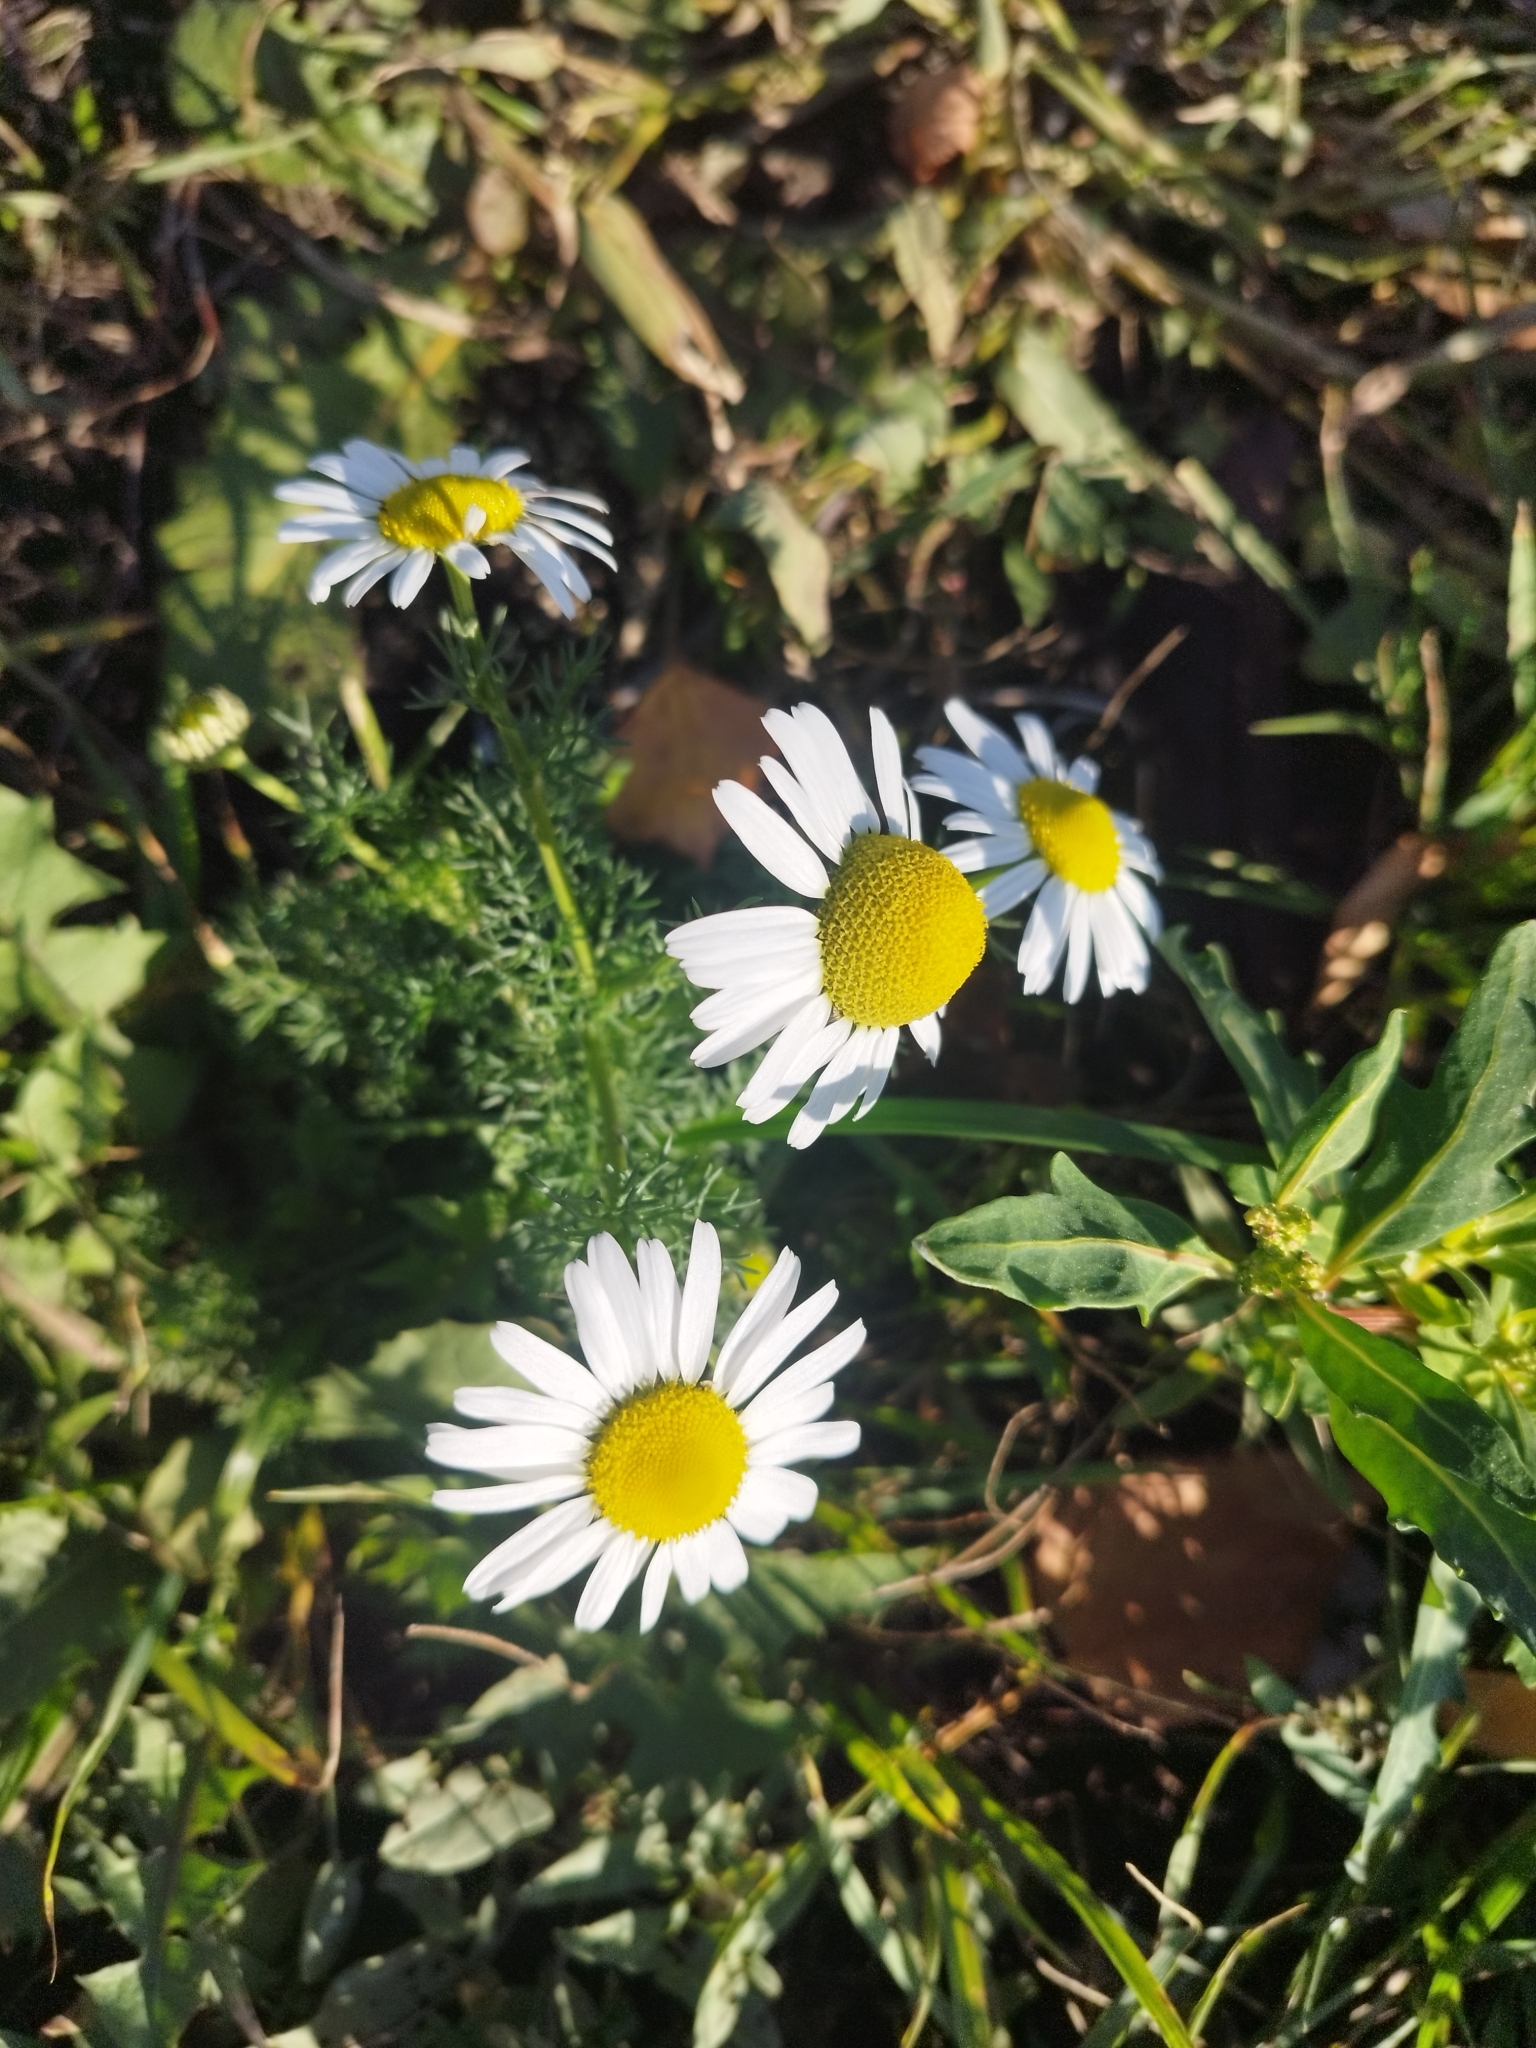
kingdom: Plantae
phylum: Tracheophyta
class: Magnoliopsida
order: Asterales
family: Asteraceae
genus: Tripleurospermum
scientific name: Tripleurospermum inodorum
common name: Scentless mayweed
